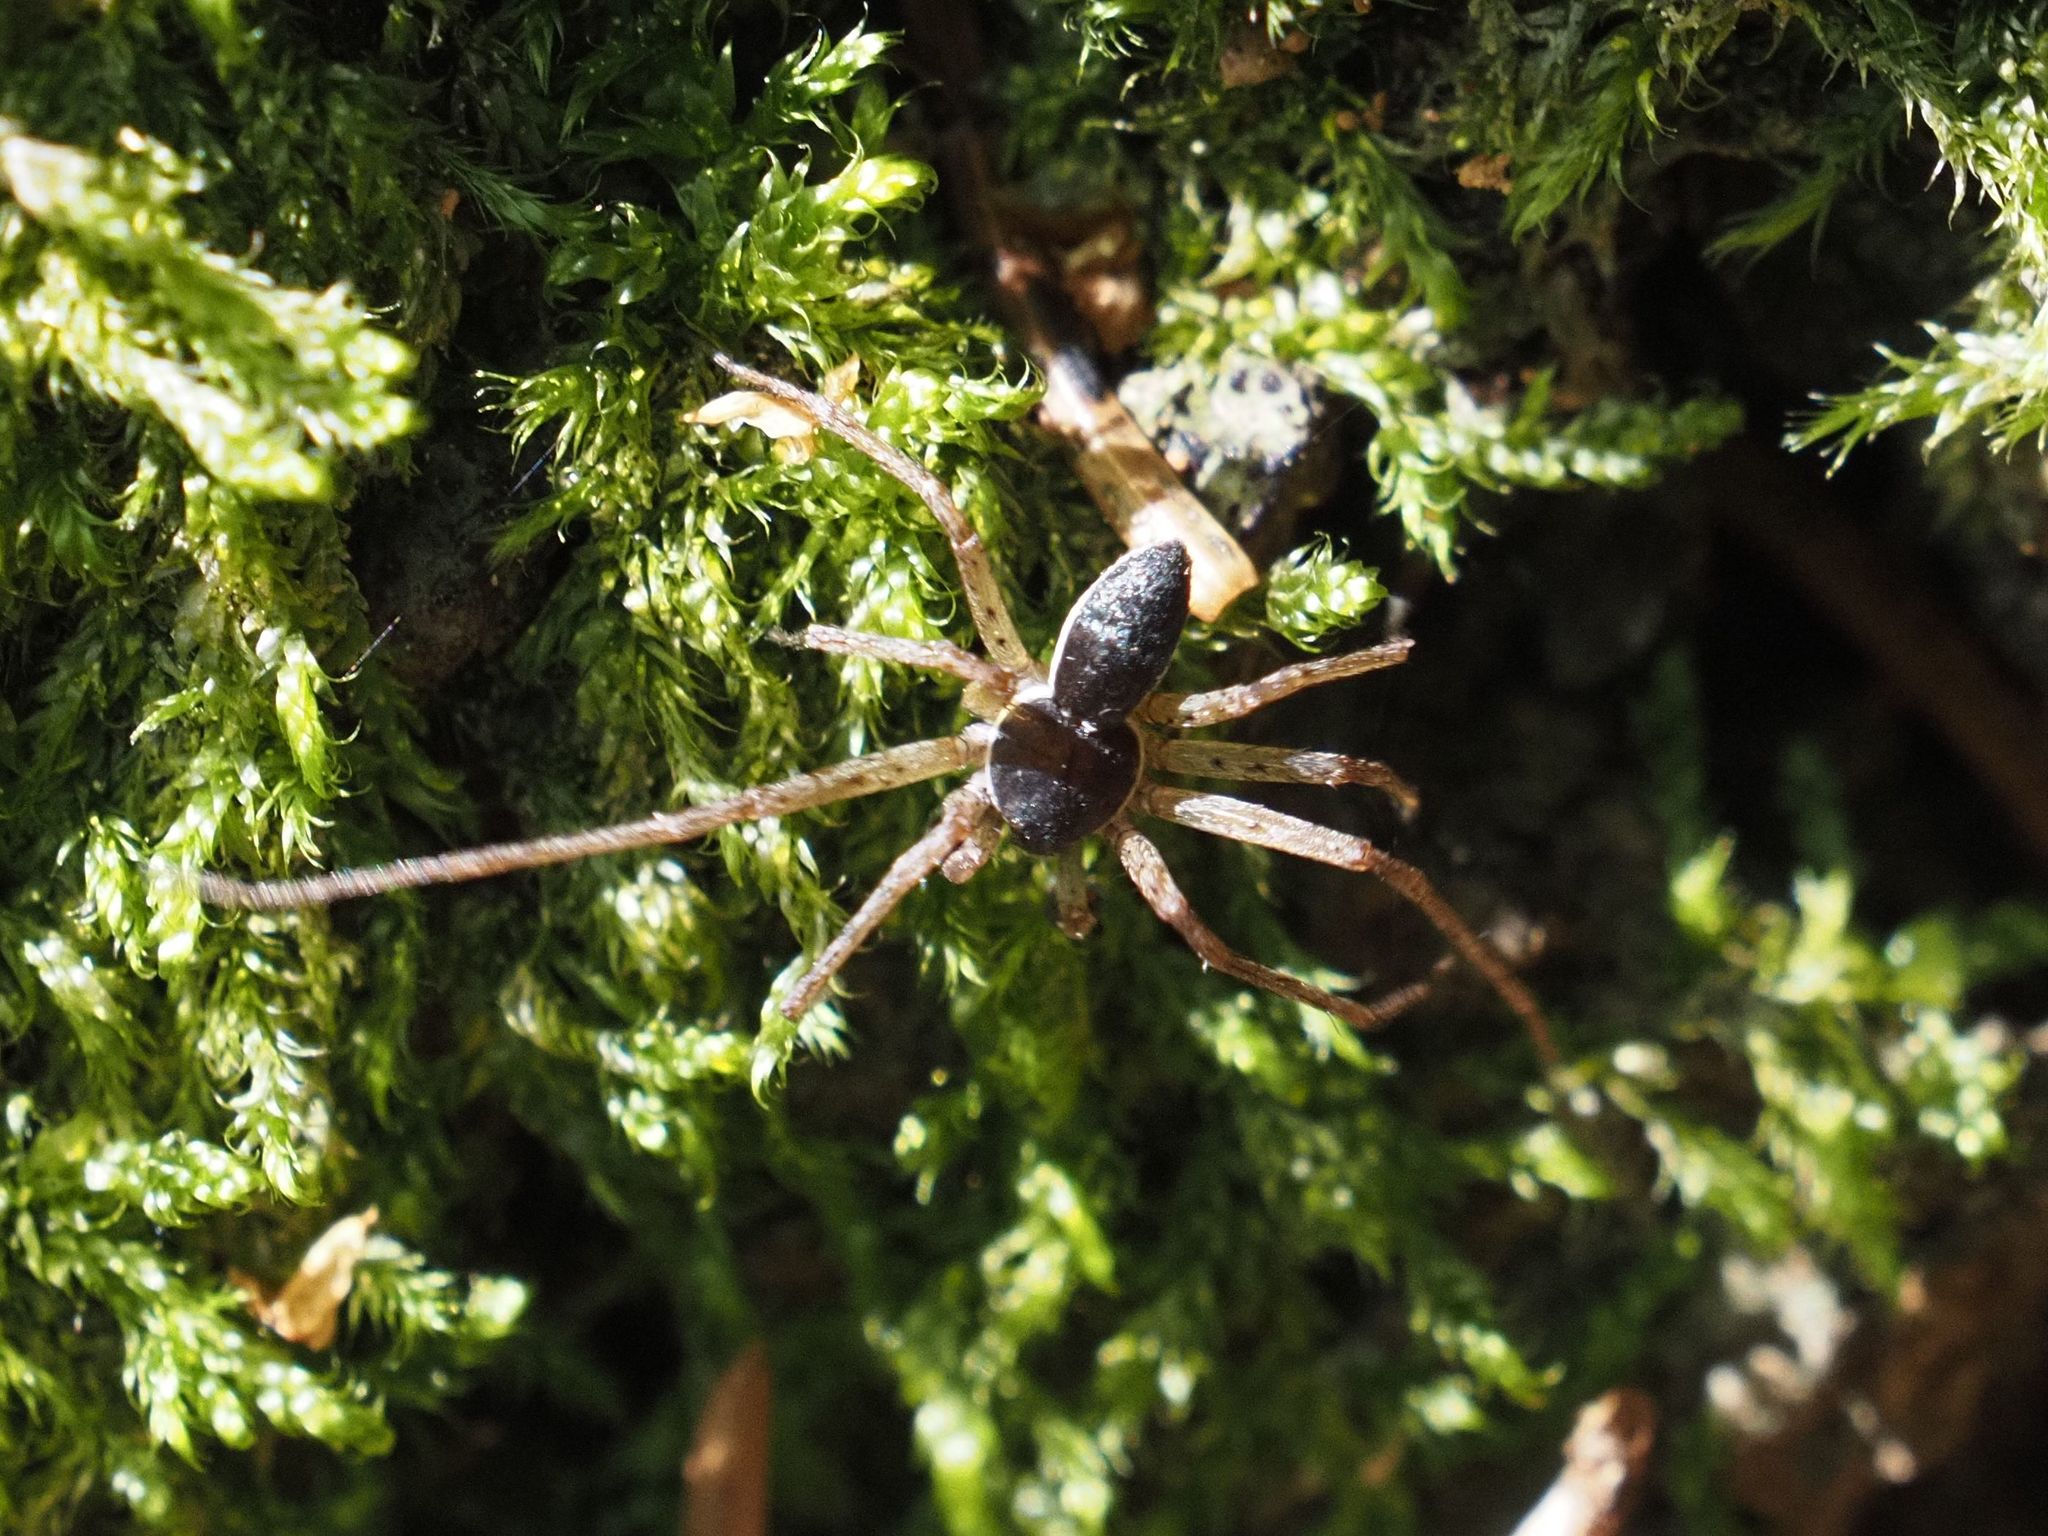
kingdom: Animalia
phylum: Arthropoda
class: Arachnida
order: Araneae
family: Philodromidae
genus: Philodromus
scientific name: Philodromus dispar
